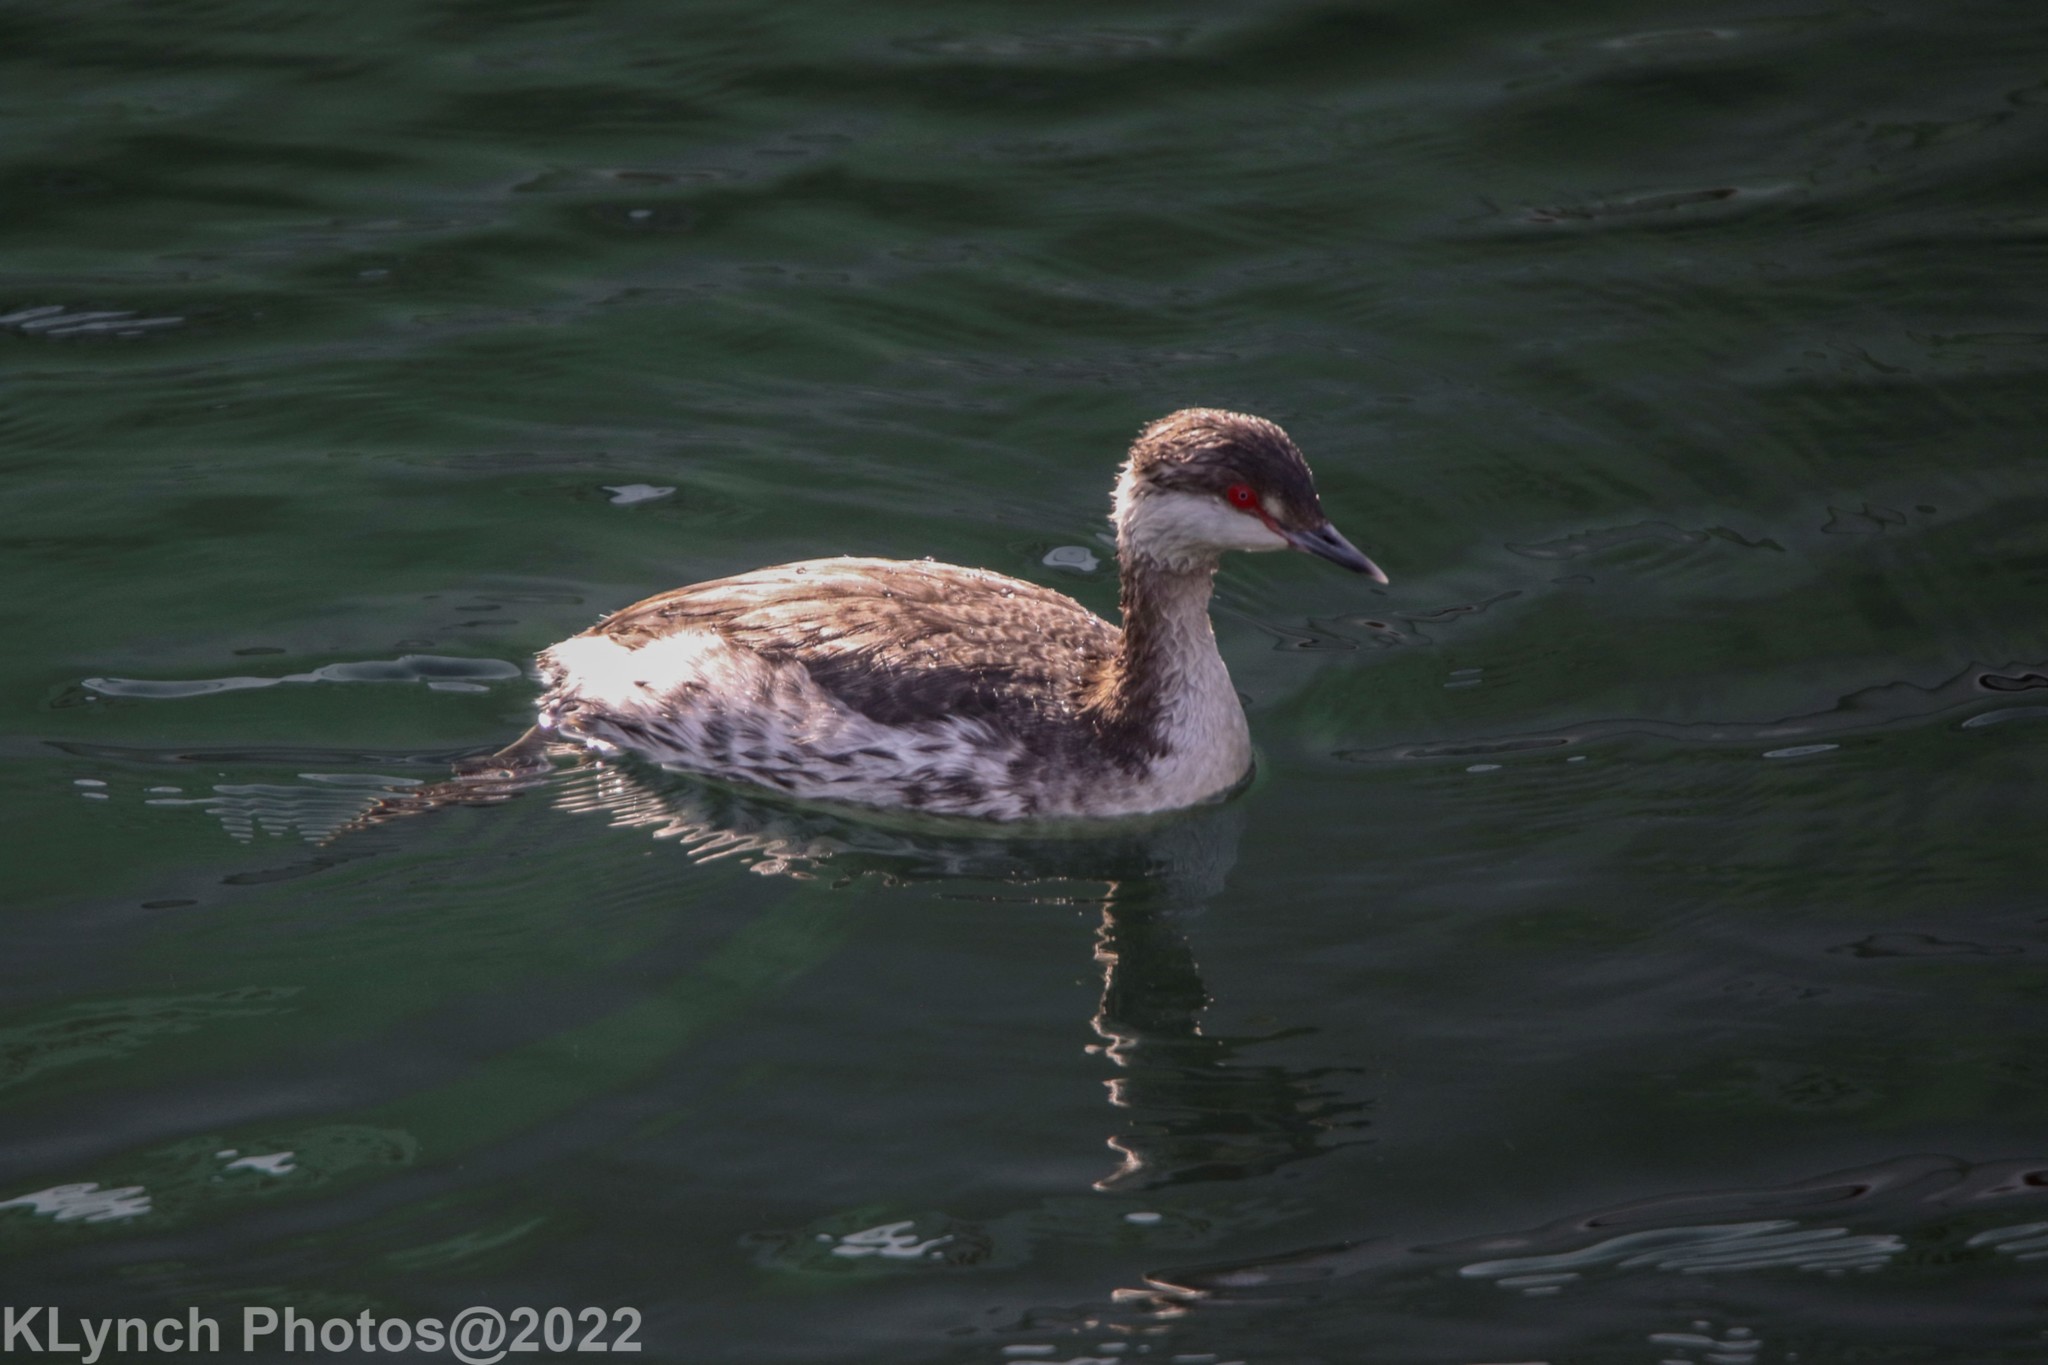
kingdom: Animalia
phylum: Chordata
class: Aves
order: Podicipediformes
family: Podicipedidae
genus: Podiceps
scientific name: Podiceps auritus
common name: Horned grebe
